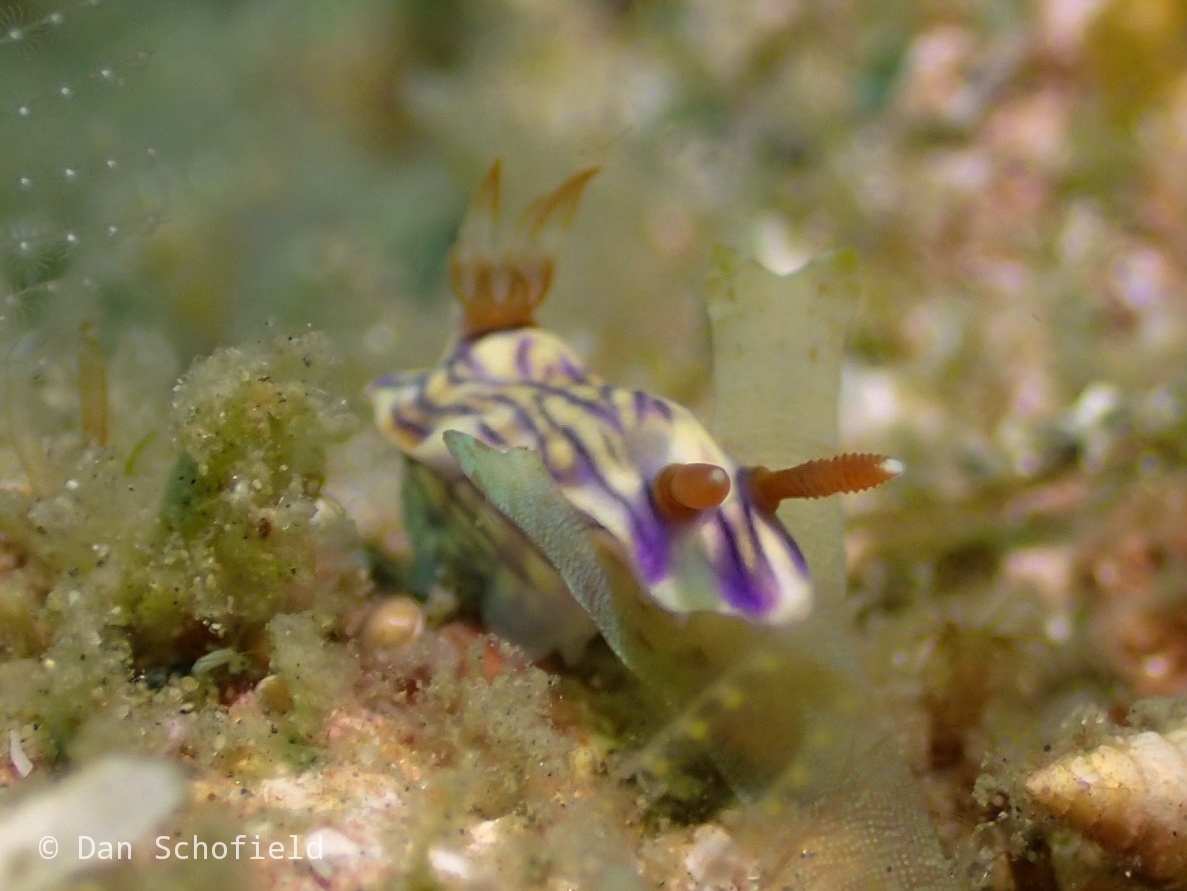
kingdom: Animalia
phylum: Mollusca
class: Gastropoda
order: Nudibranchia
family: Chromodorididae
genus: Hypselodoris
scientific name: Hypselodoris zephyra
